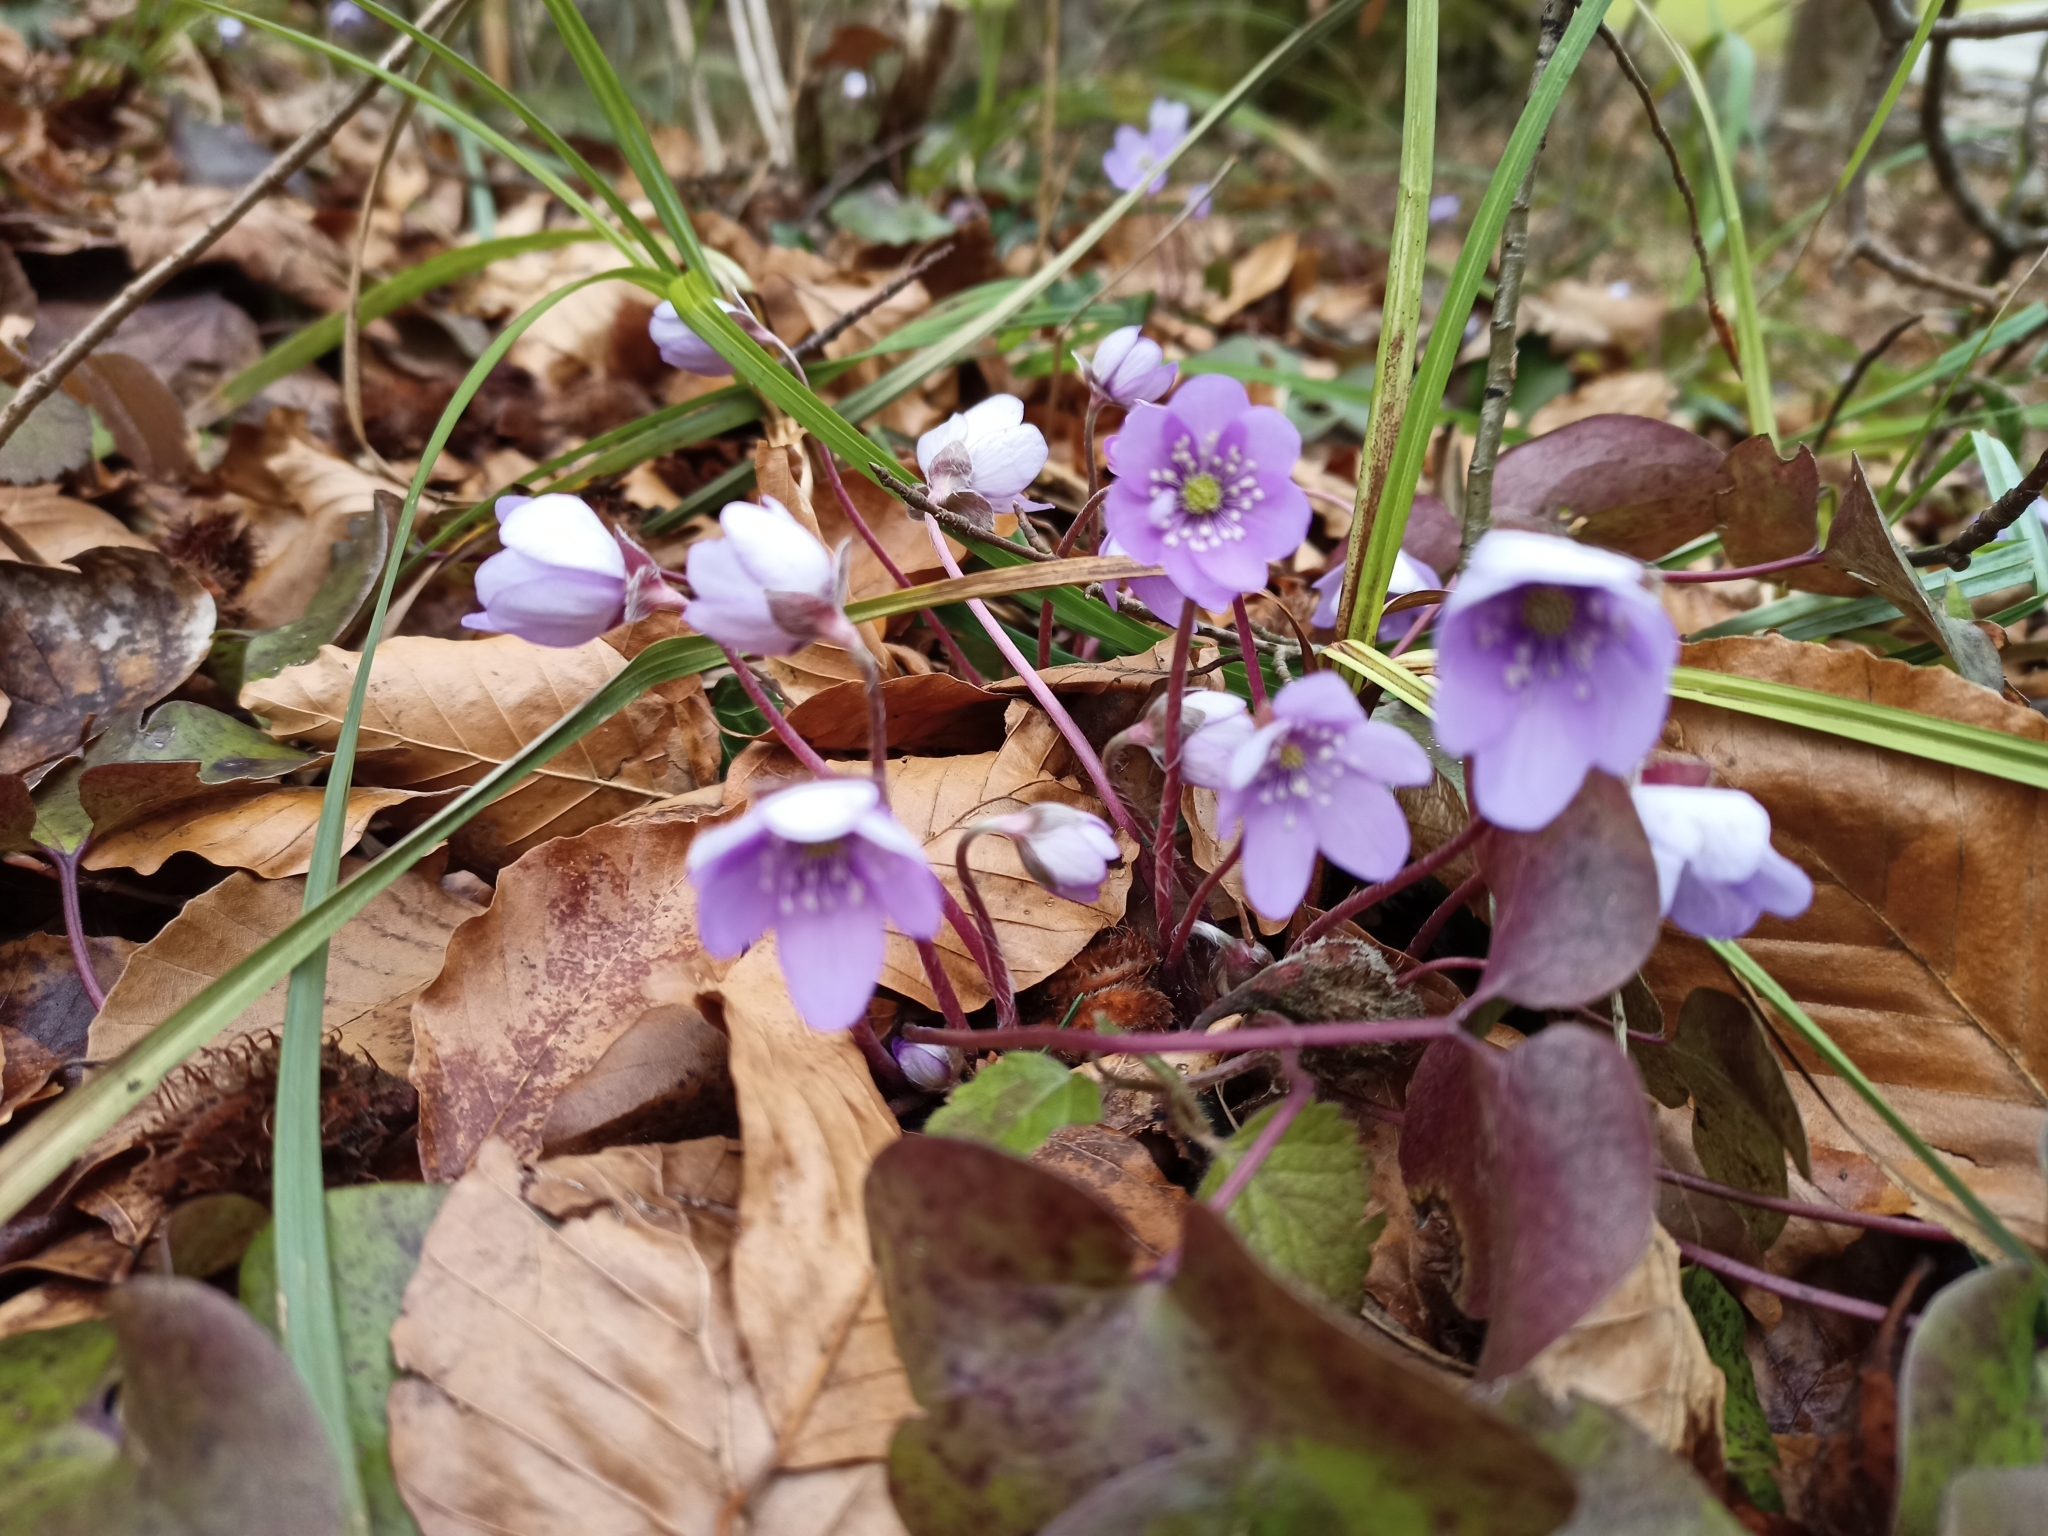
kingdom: Plantae
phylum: Tracheophyta
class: Magnoliopsida
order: Ranunculales
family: Ranunculaceae
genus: Hepatica
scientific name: Hepatica nobilis
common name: Liverleaf
